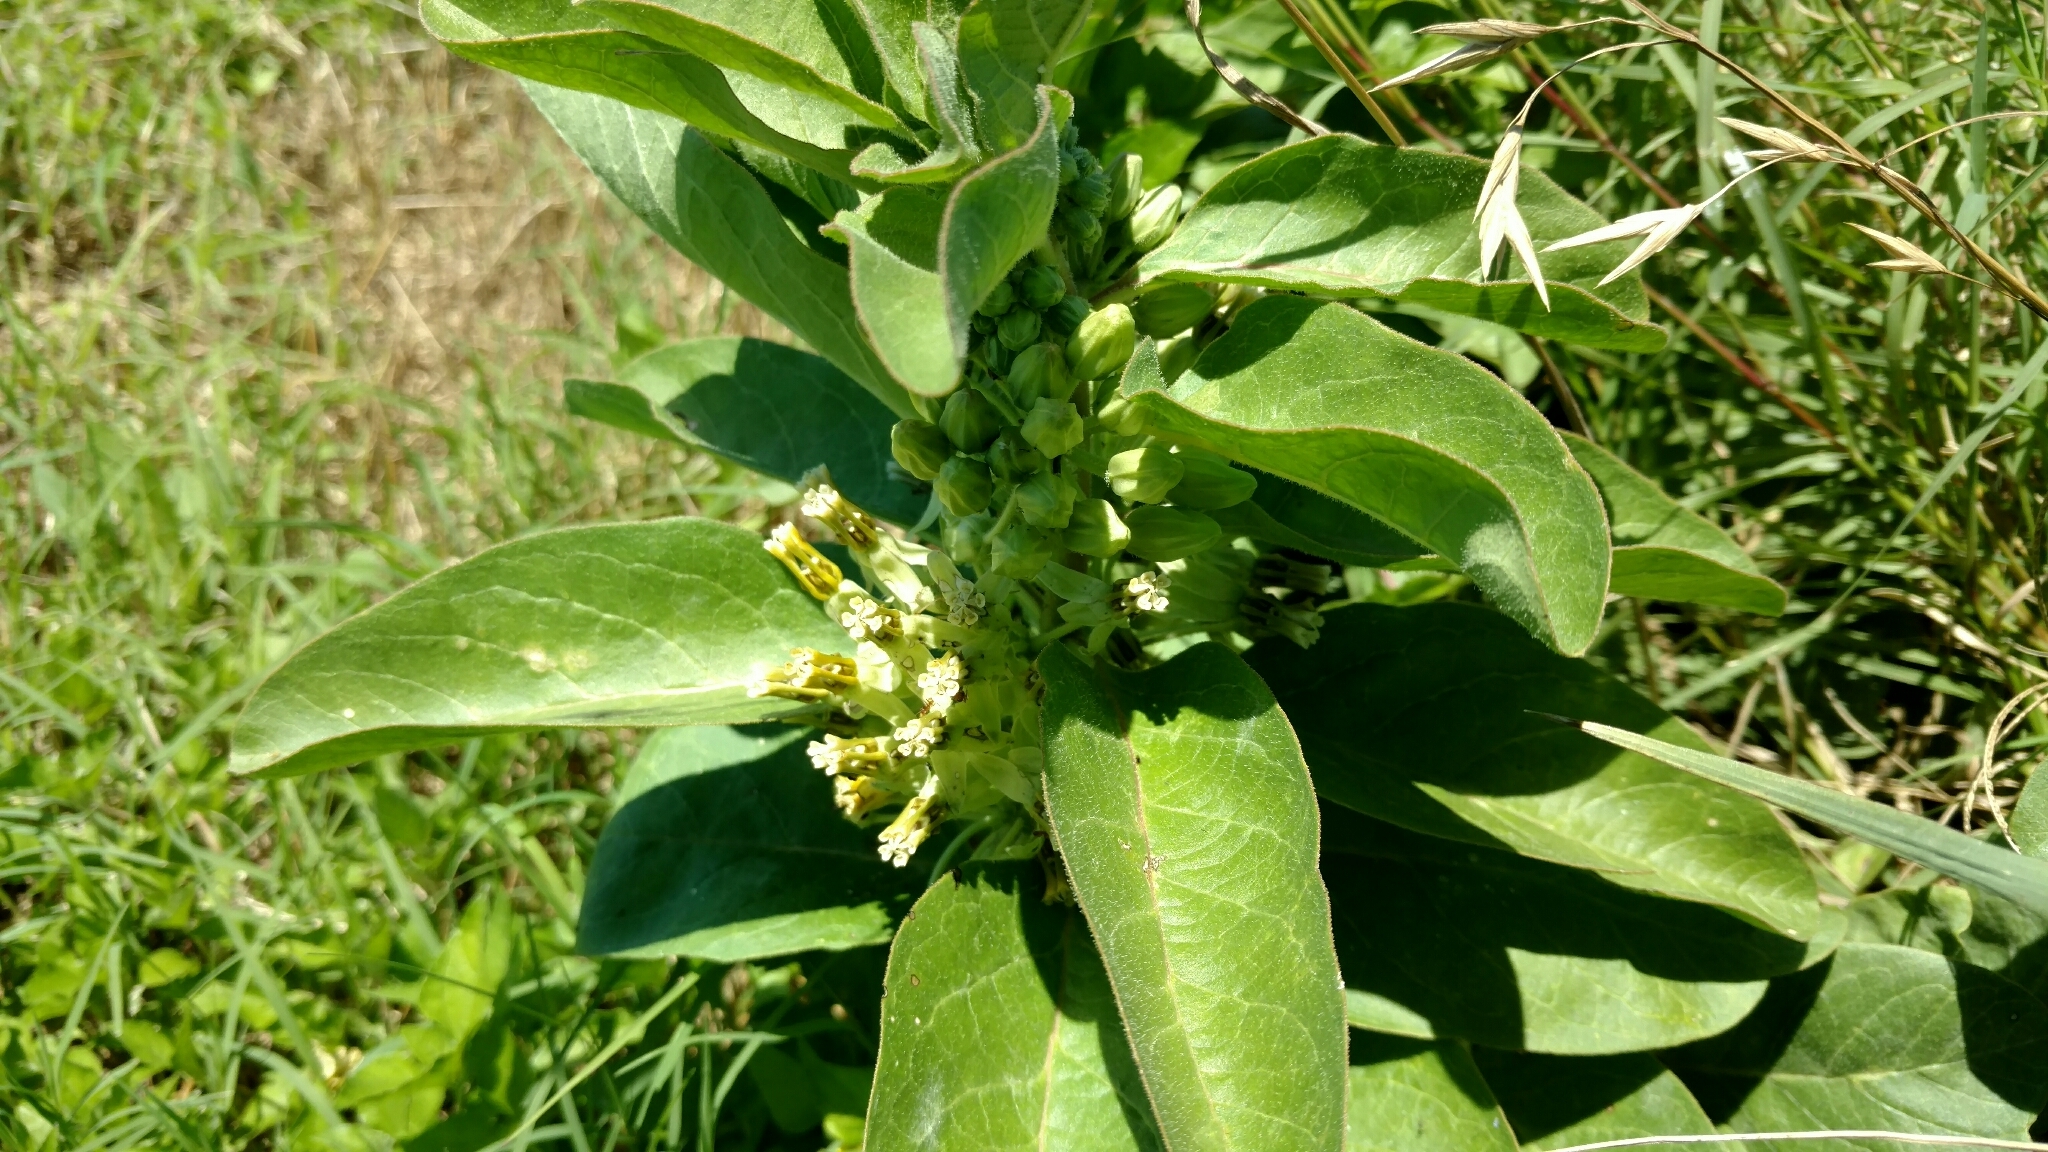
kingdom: Plantae
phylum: Tracheophyta
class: Magnoliopsida
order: Gentianales
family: Apocynaceae
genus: Asclepias
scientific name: Asclepias oenotheroides
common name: Zizotes milkweed
